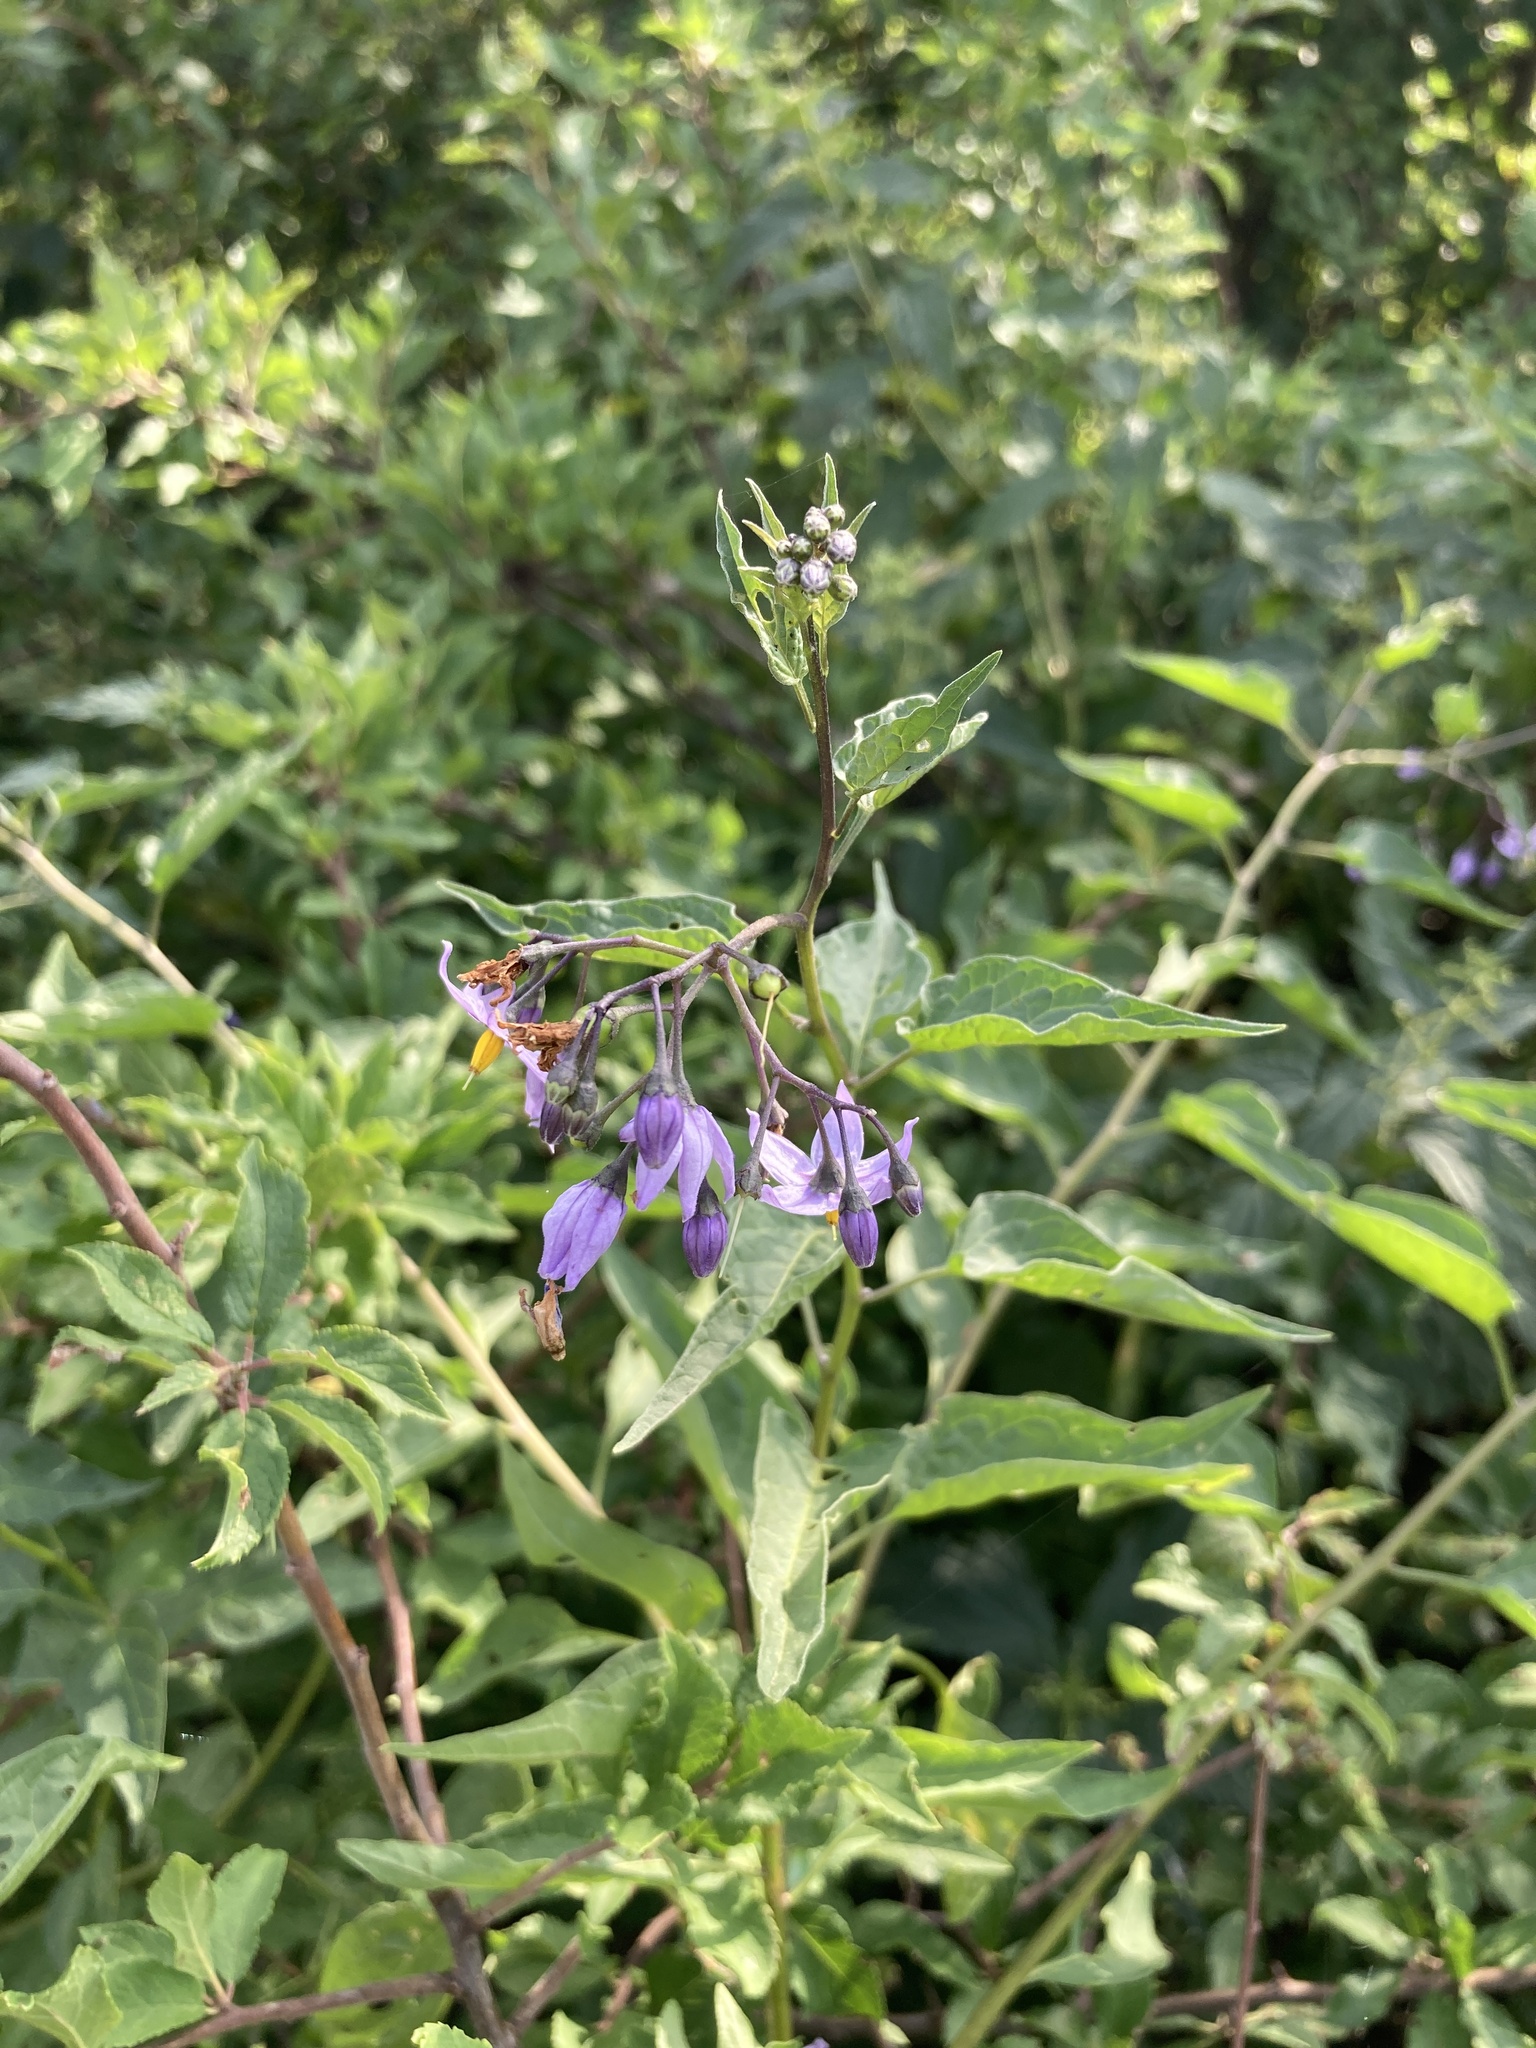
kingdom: Plantae
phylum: Tracheophyta
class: Magnoliopsida
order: Solanales
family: Solanaceae
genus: Solanum
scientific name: Solanum dulcamara
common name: Climbing nightshade
